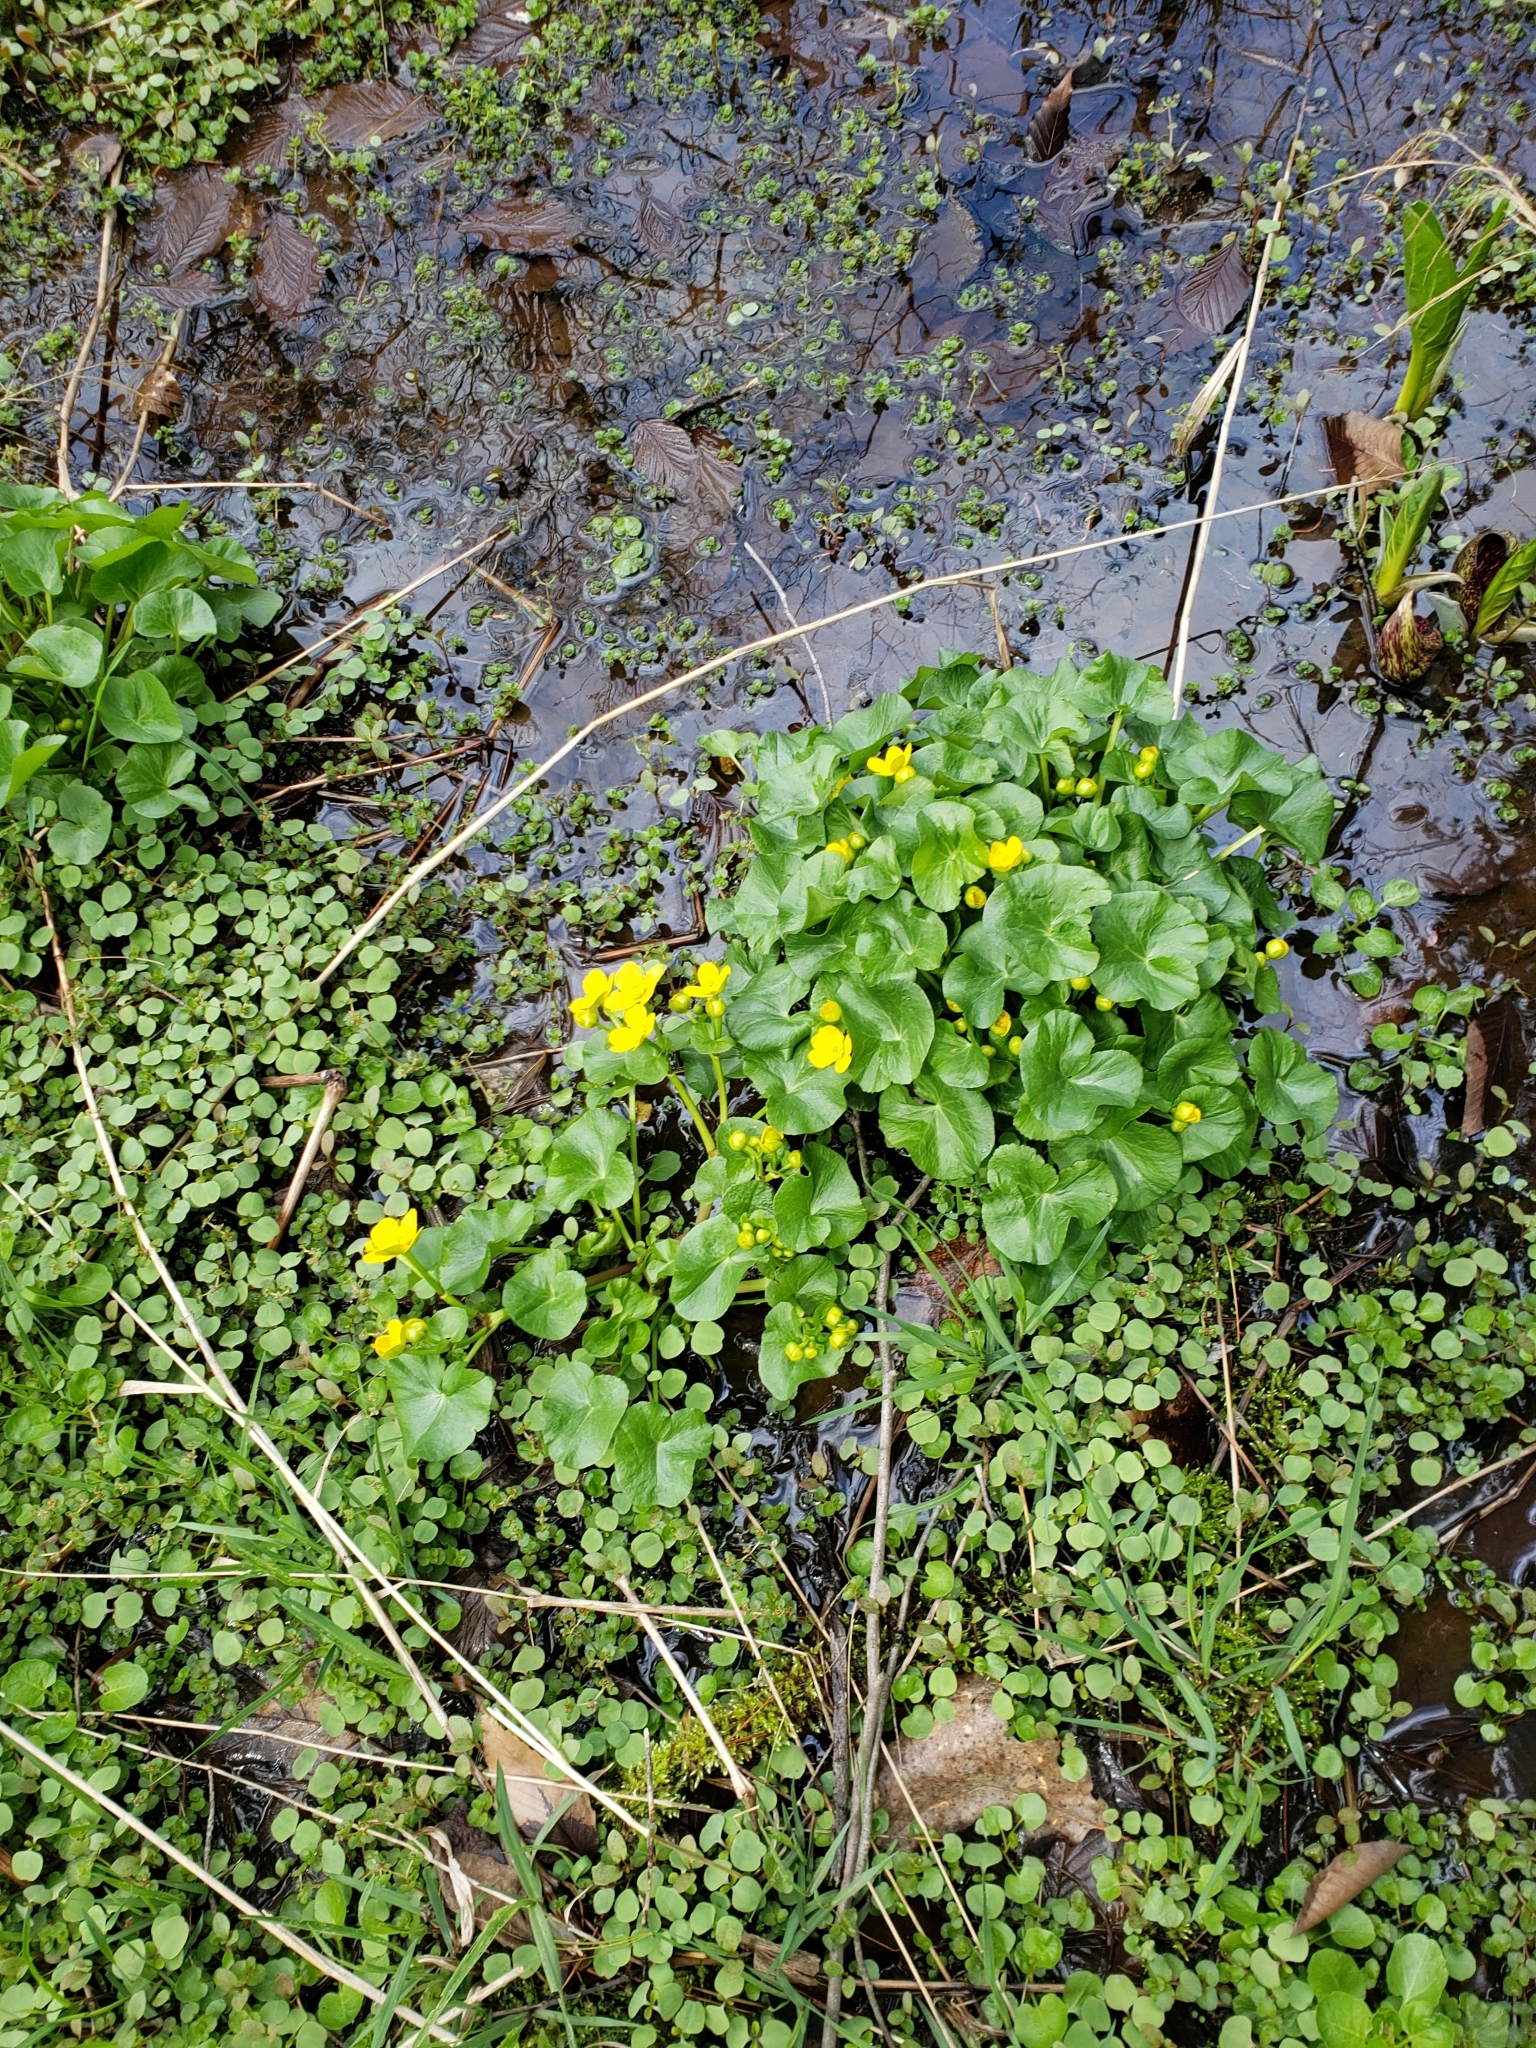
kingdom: Plantae
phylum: Tracheophyta
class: Magnoliopsida
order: Ranunculales
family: Ranunculaceae
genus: Caltha
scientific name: Caltha palustris
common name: Marsh marigold
